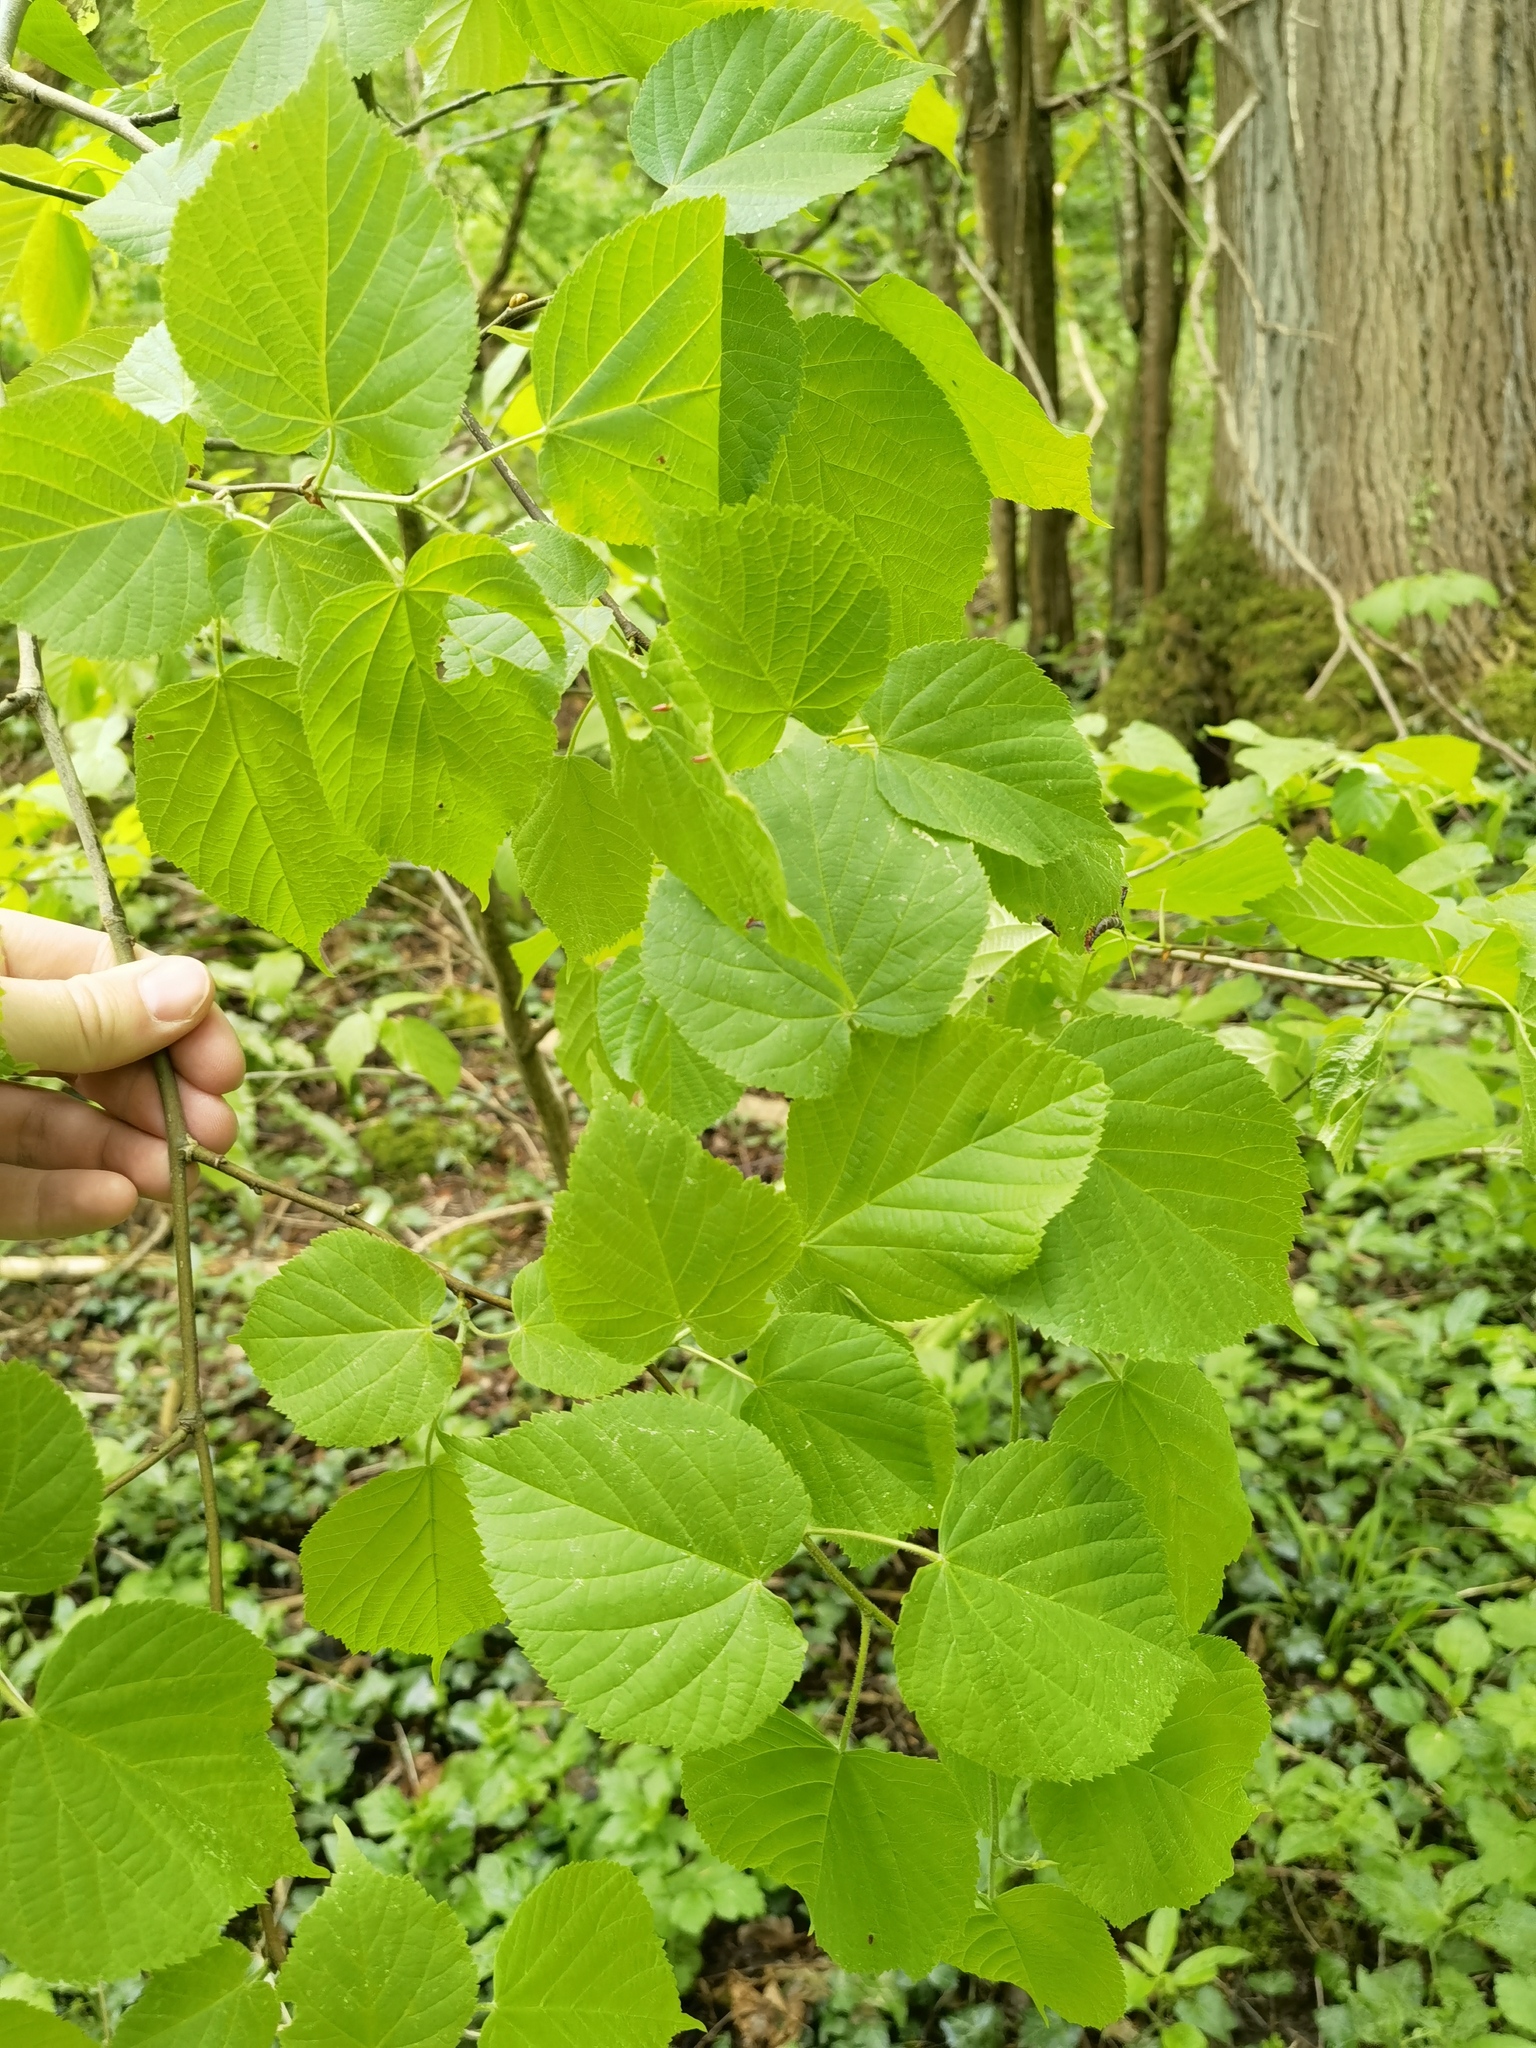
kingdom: Plantae
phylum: Tracheophyta
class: Magnoliopsida
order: Malvales
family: Malvaceae
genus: Tilia
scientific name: Tilia cordata
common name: Small-leaved lime
